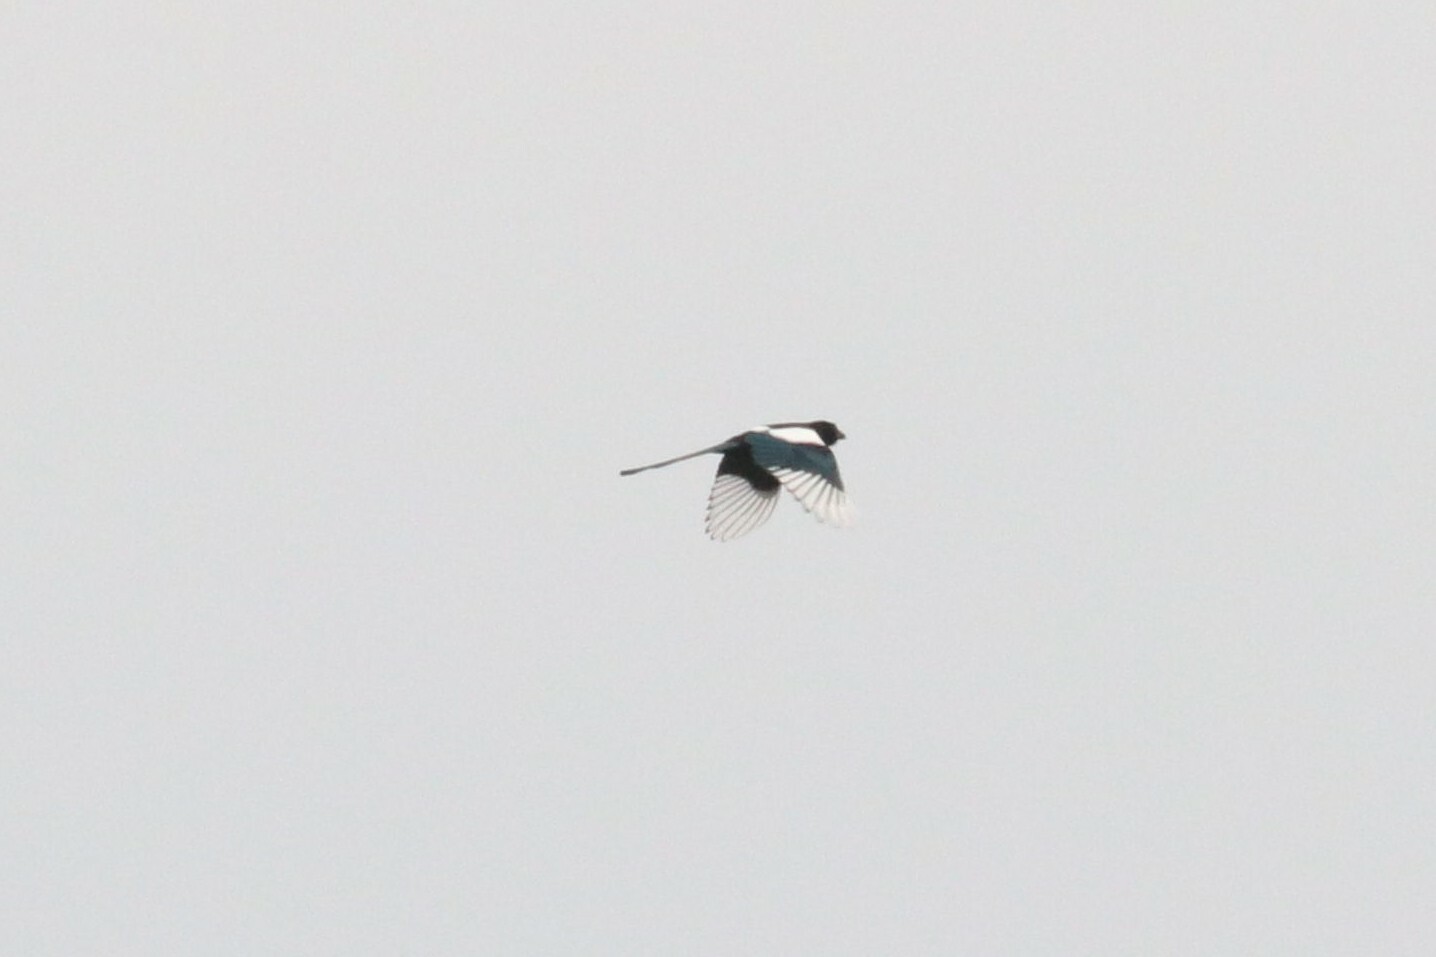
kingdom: Animalia
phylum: Chordata
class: Aves
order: Passeriformes
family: Corvidae
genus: Pica
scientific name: Pica pica
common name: Eurasian magpie
